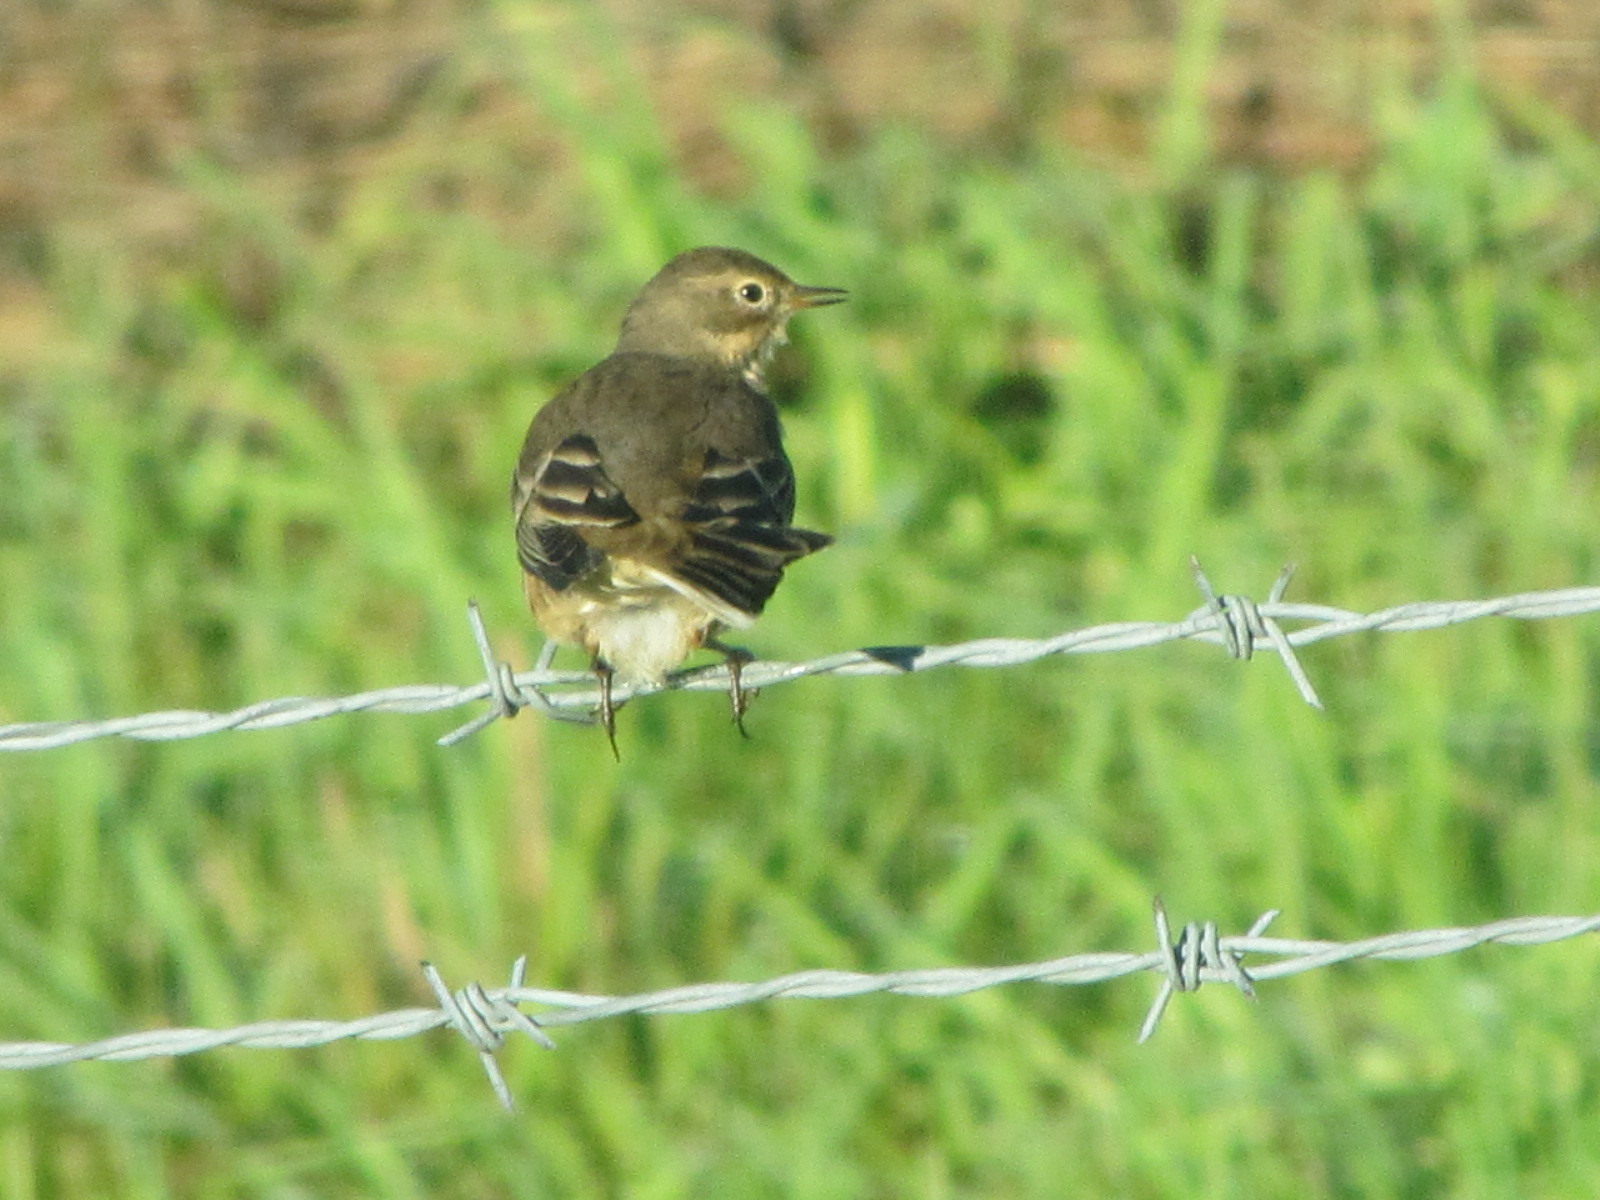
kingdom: Animalia
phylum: Chordata
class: Aves
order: Passeriformes
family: Motacillidae
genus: Anthus
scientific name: Anthus rubescens
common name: Buff-bellied pipit
